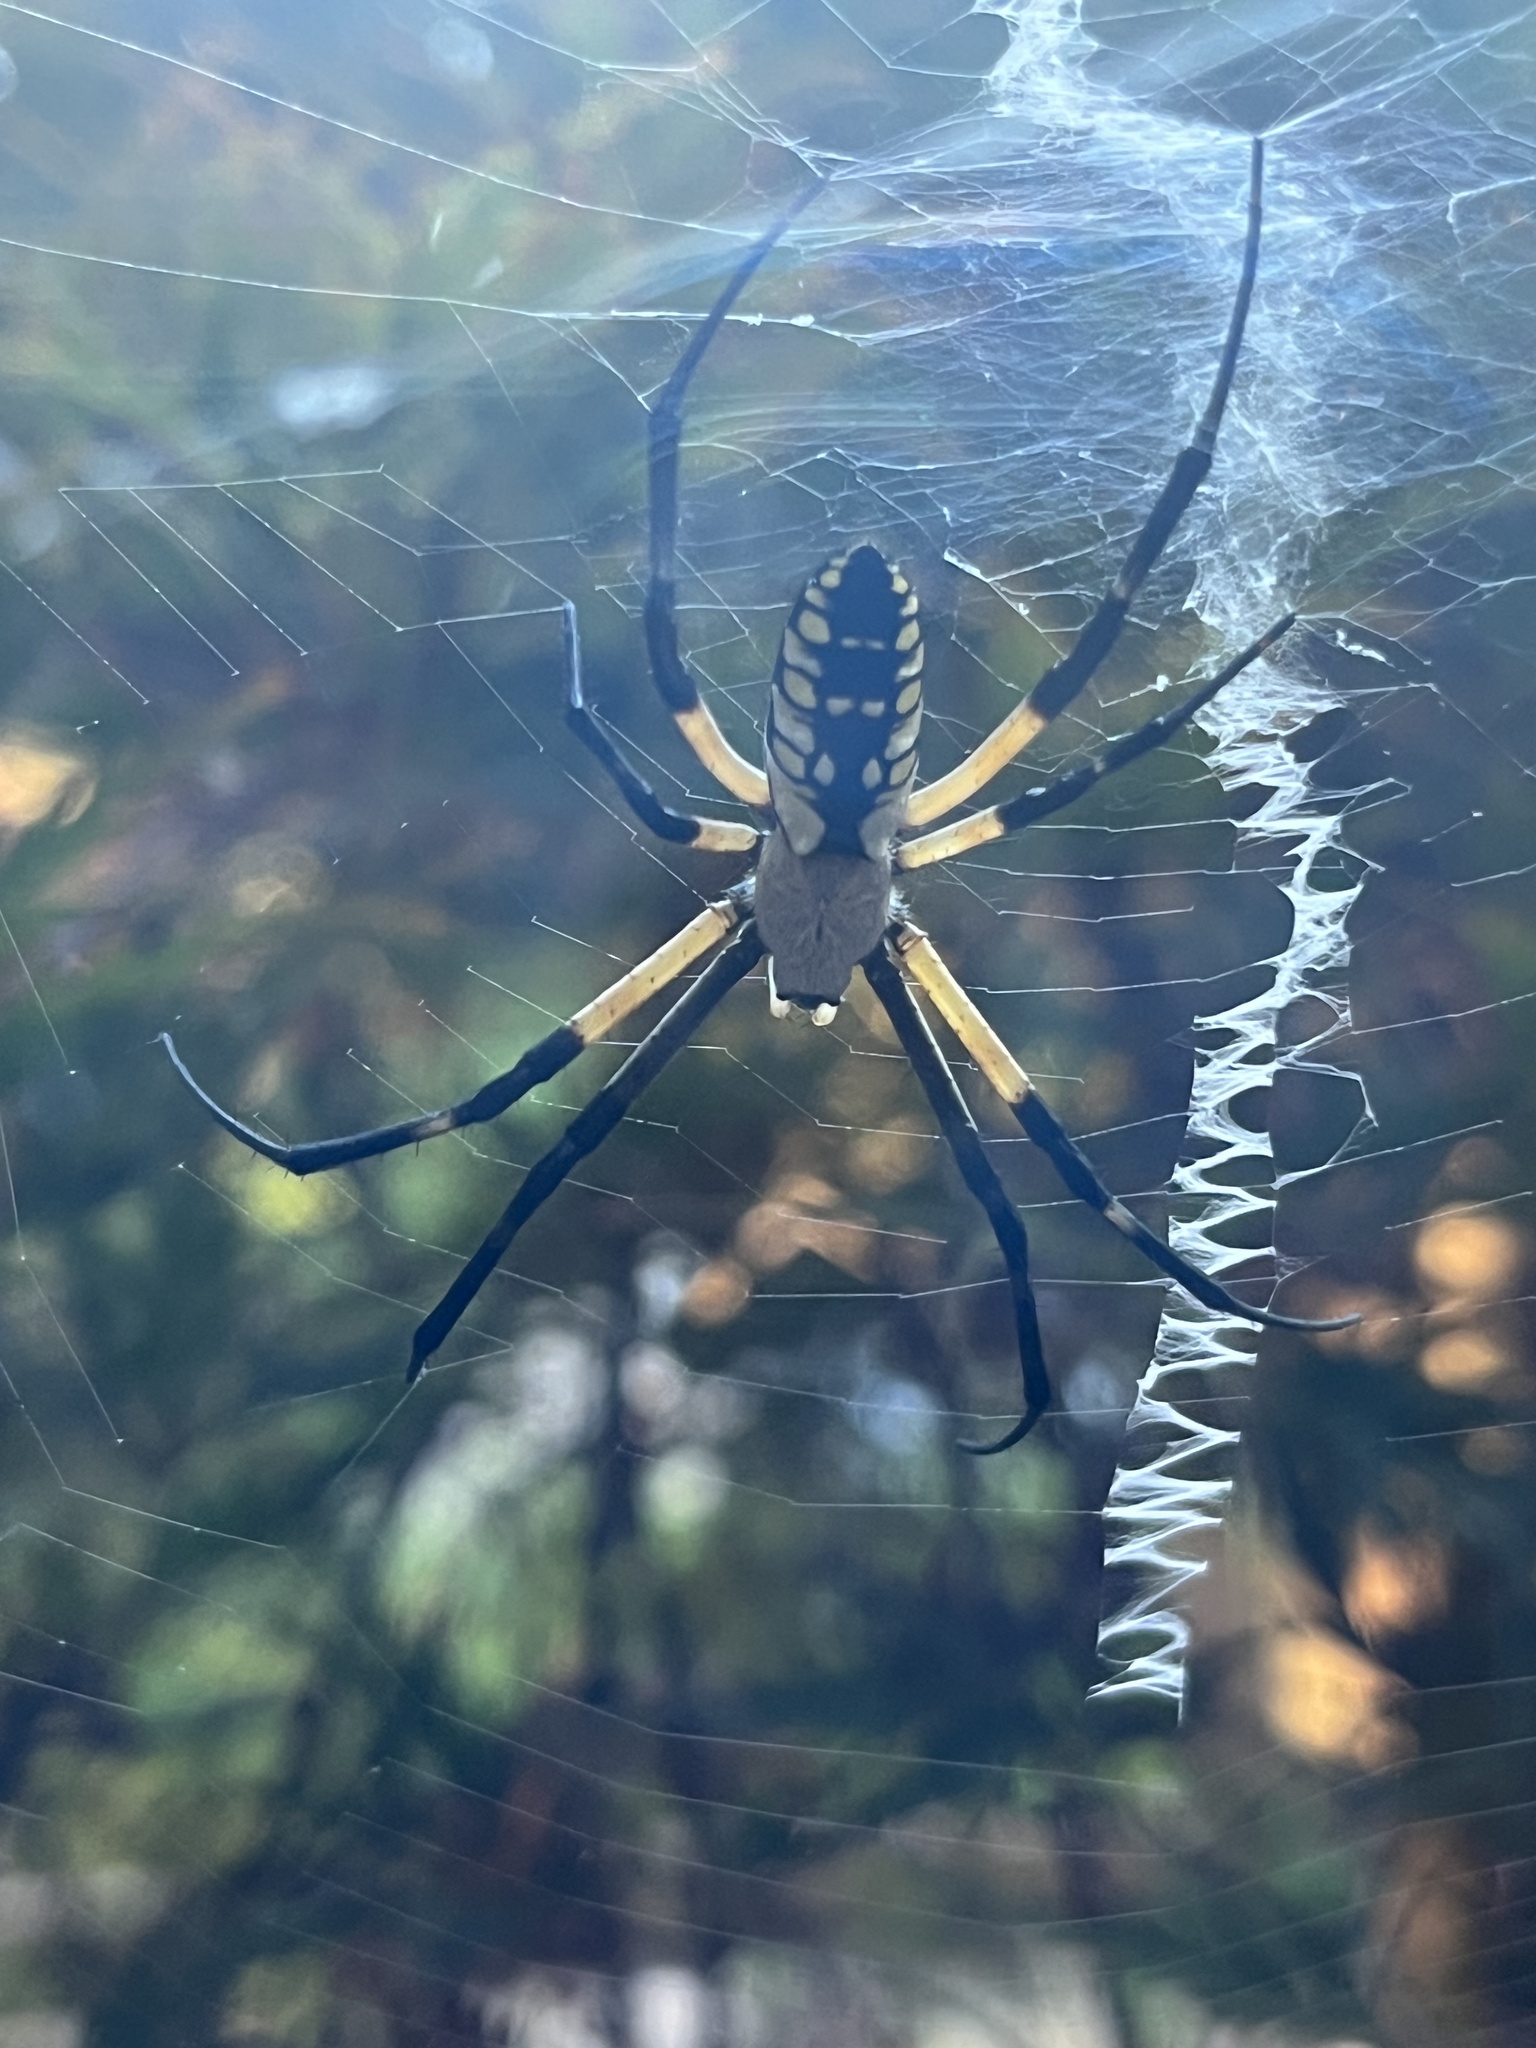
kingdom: Animalia
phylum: Arthropoda
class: Arachnida
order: Araneae
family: Araneidae
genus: Argiope
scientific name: Argiope aurantia
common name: Orb weavers
